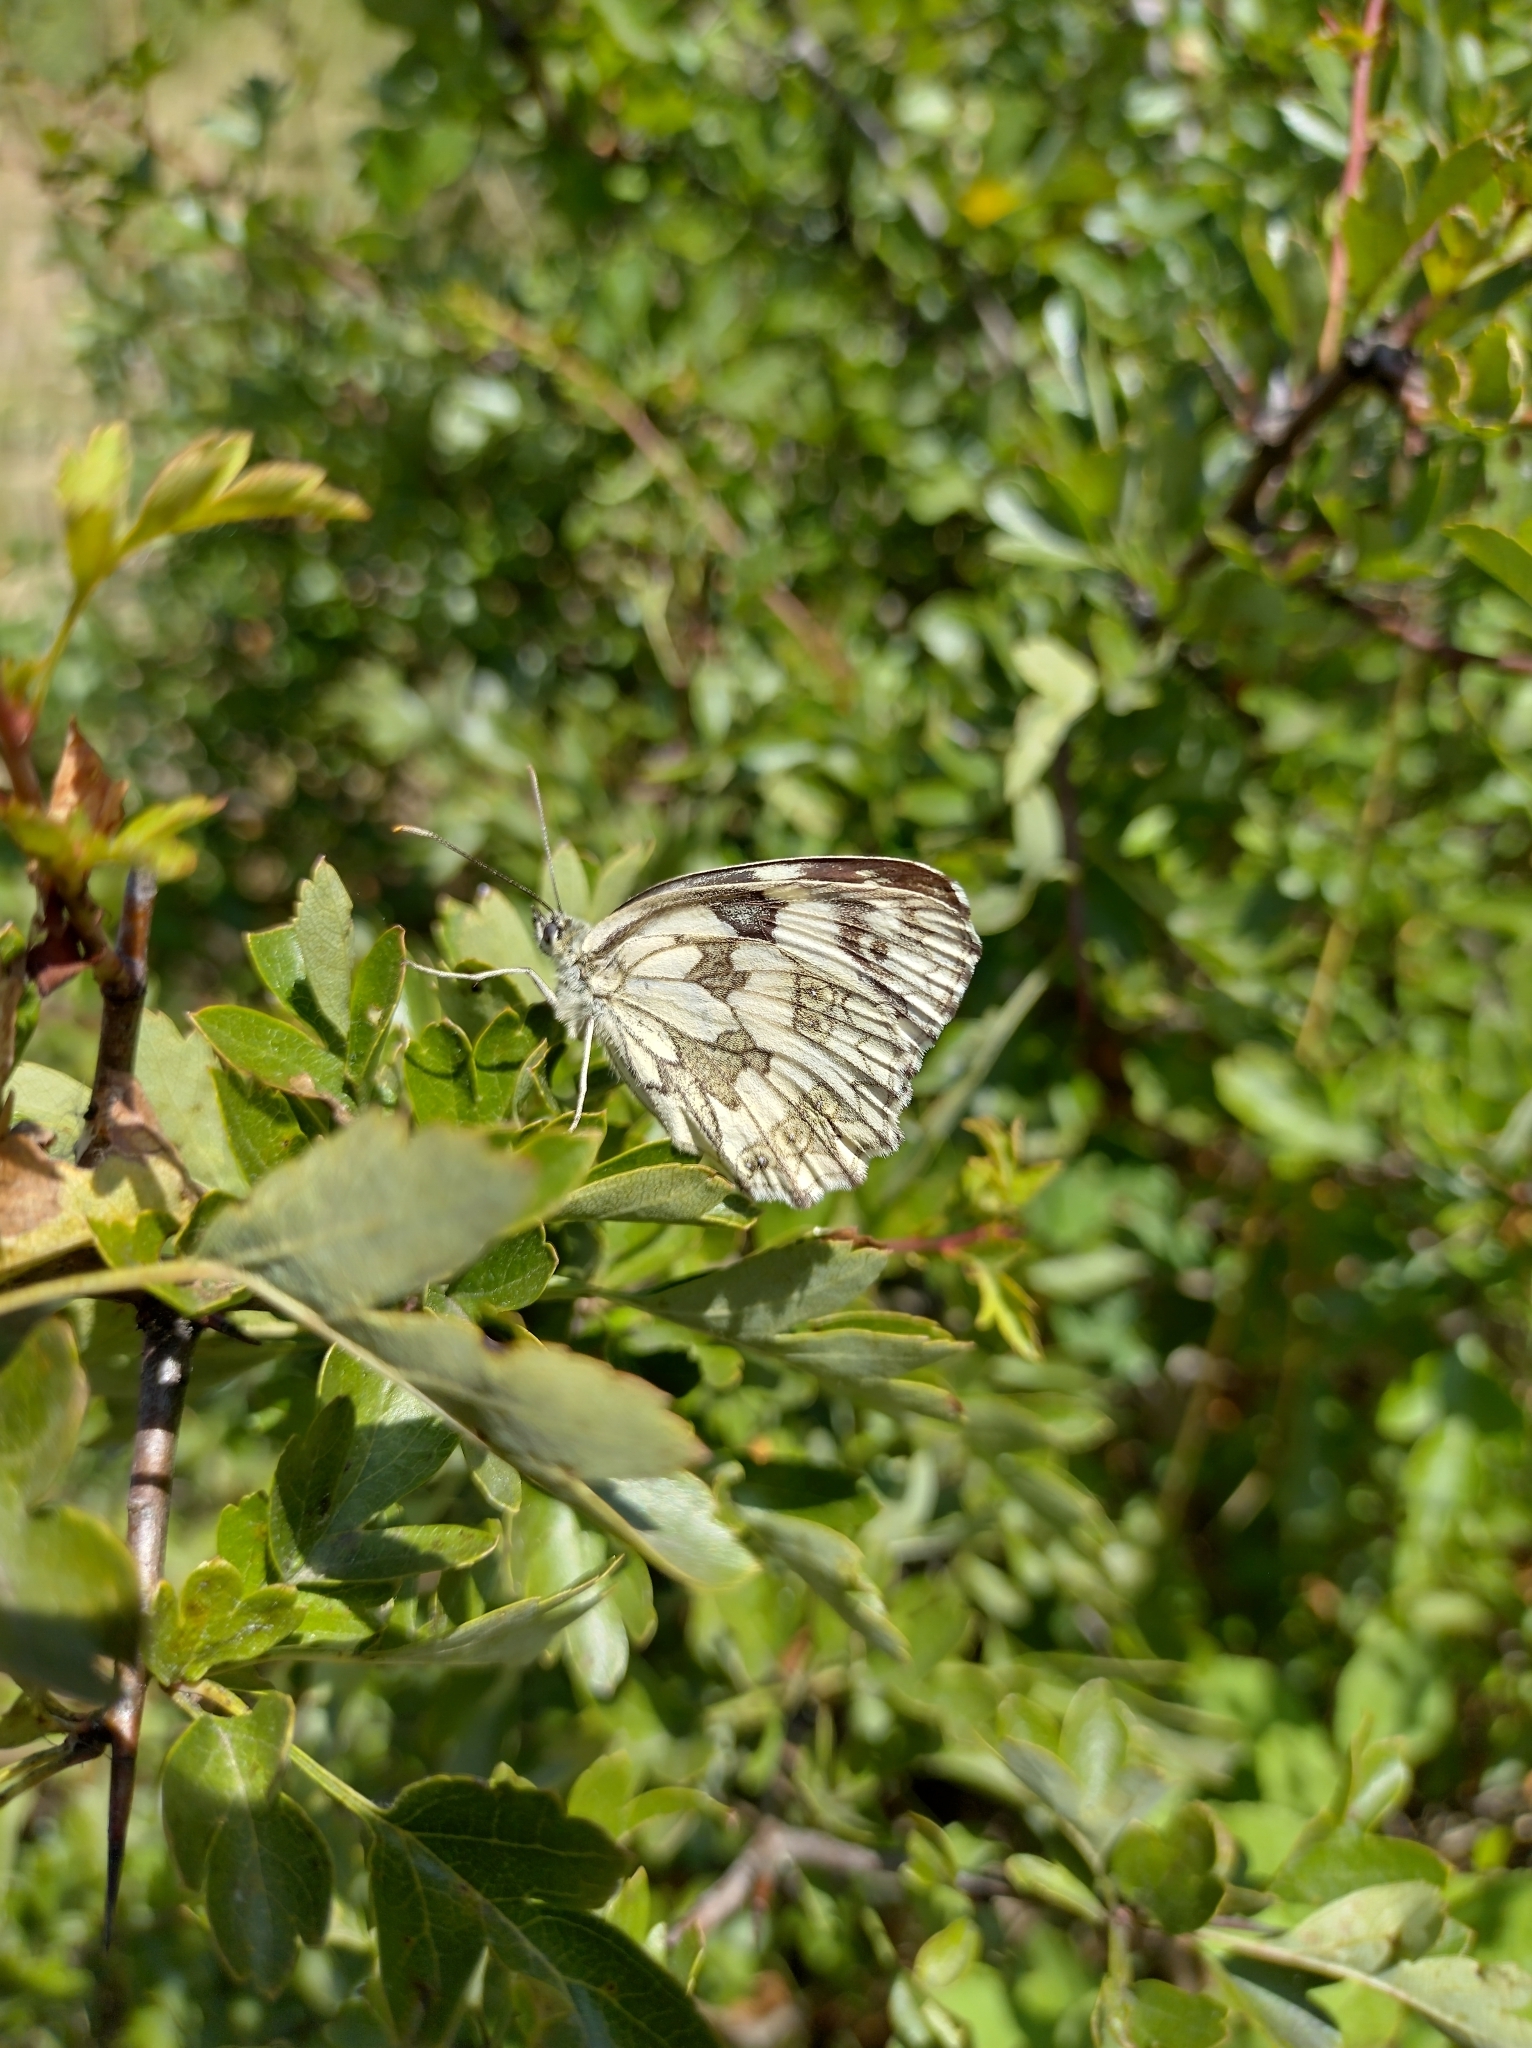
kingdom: Animalia
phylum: Arthropoda
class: Insecta
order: Lepidoptera
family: Nymphalidae
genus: Melanargia
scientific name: Melanargia galathea
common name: Marbled white
